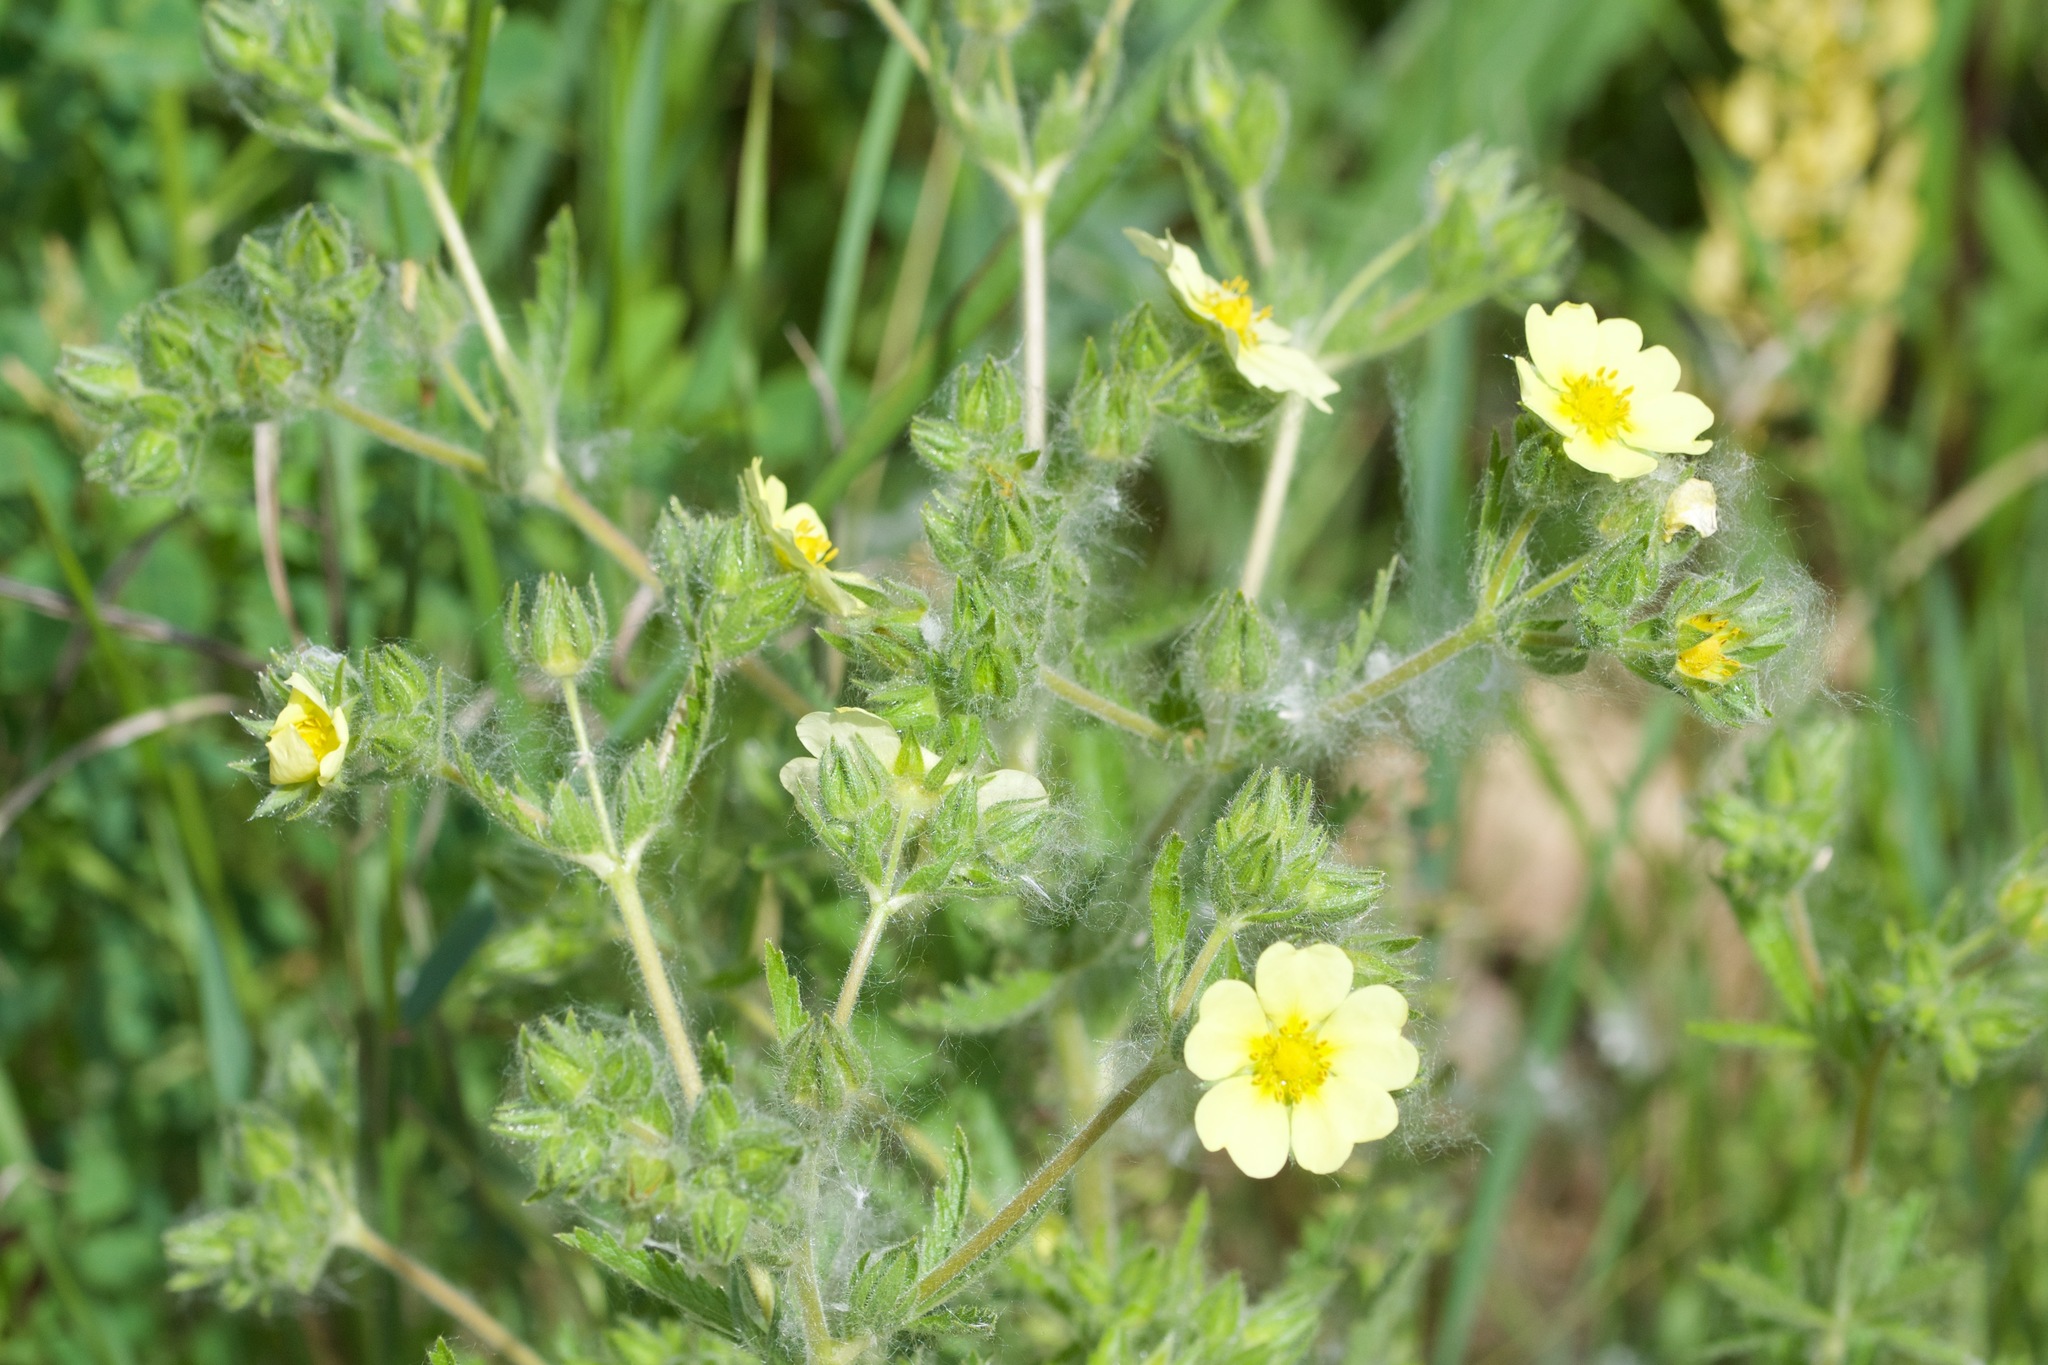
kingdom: Plantae
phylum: Tracheophyta
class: Magnoliopsida
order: Rosales
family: Rosaceae
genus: Potentilla
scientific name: Potentilla recta
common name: Sulphur cinquefoil
